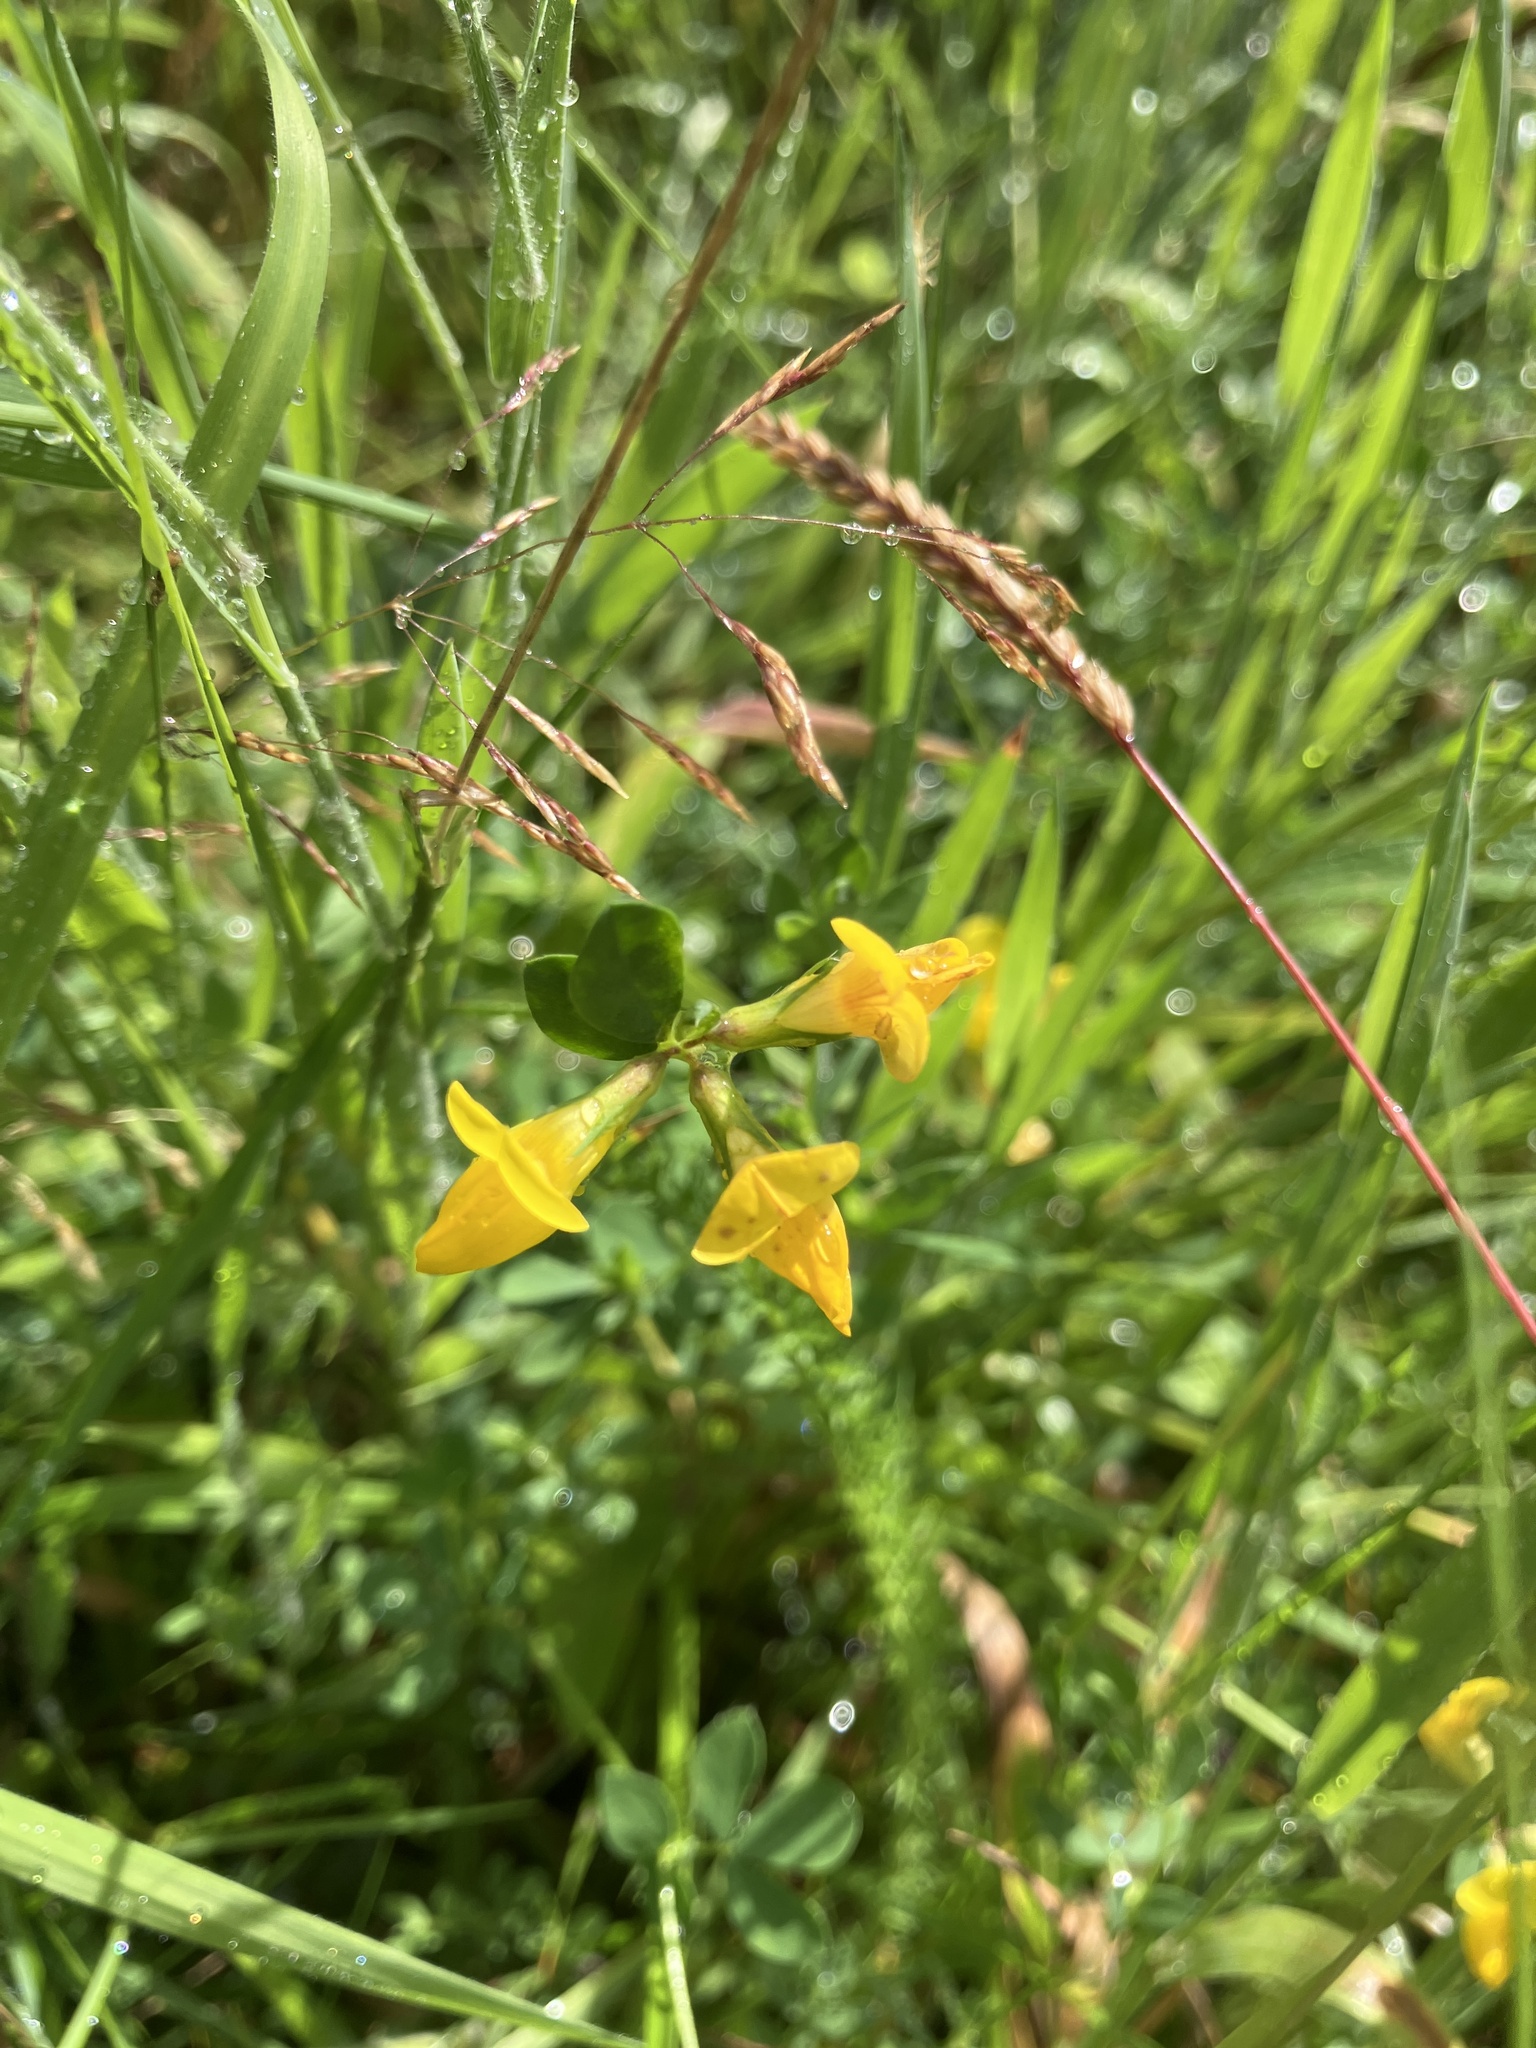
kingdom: Plantae
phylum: Tracheophyta
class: Magnoliopsida
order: Fabales
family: Fabaceae
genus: Lotus
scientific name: Lotus corniculatus
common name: Common bird's-foot-trefoil
